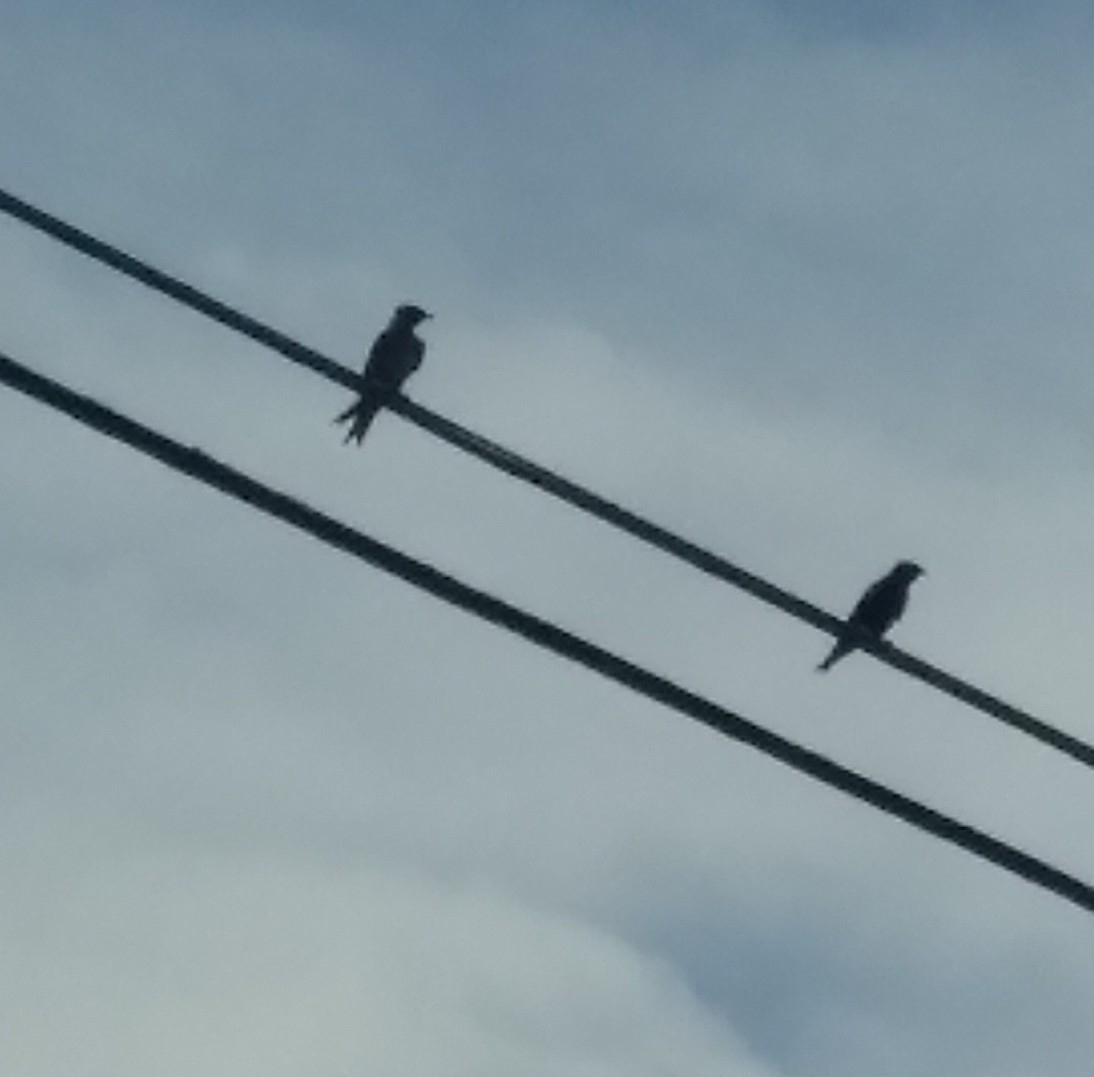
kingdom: Animalia
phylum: Chordata
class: Aves
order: Passeriformes
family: Hirundinidae
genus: Progne
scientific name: Progne subis
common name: Purple martin
